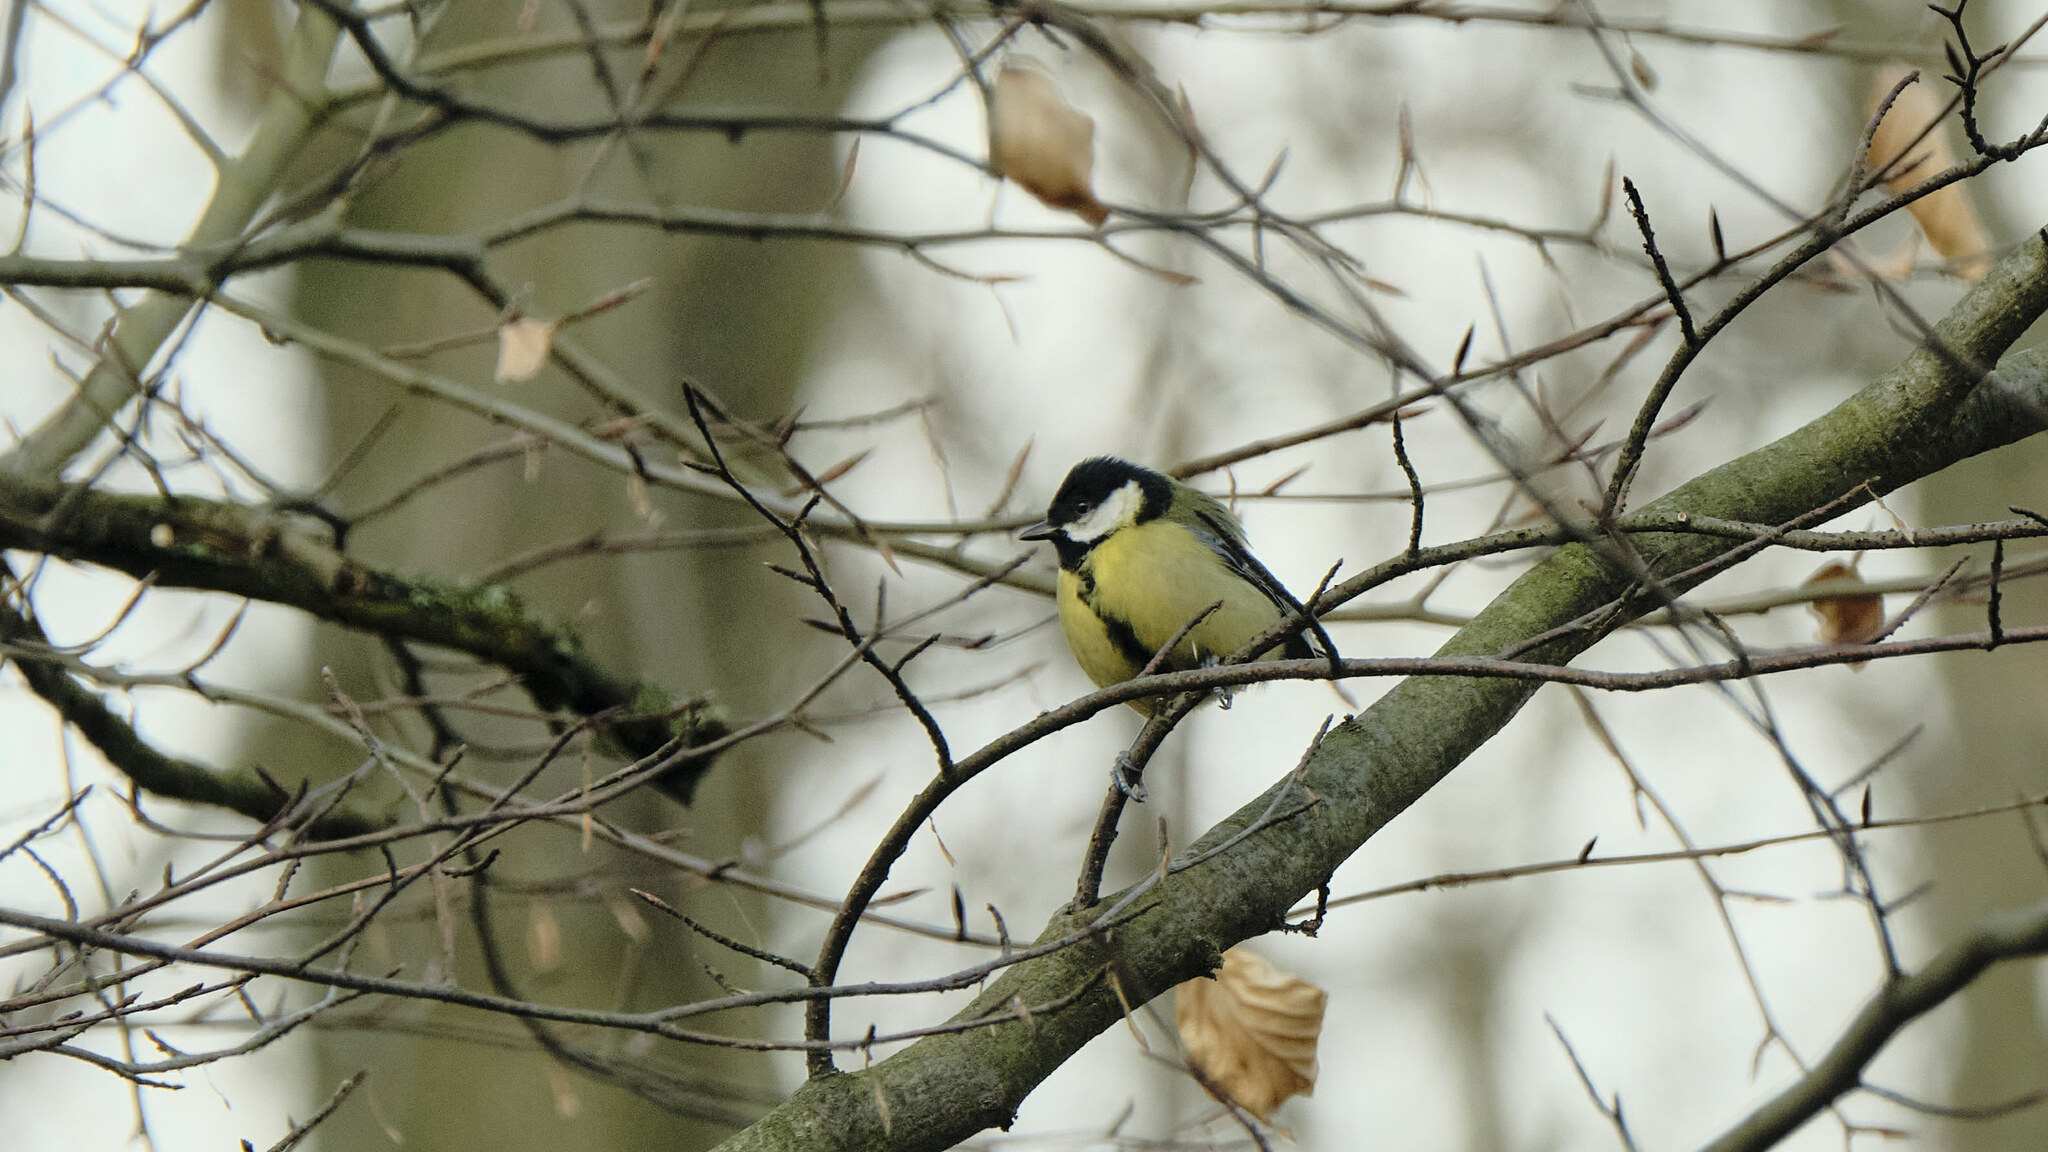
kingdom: Animalia
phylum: Chordata
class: Aves
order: Passeriformes
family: Paridae
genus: Parus
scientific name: Parus major
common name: Great tit
